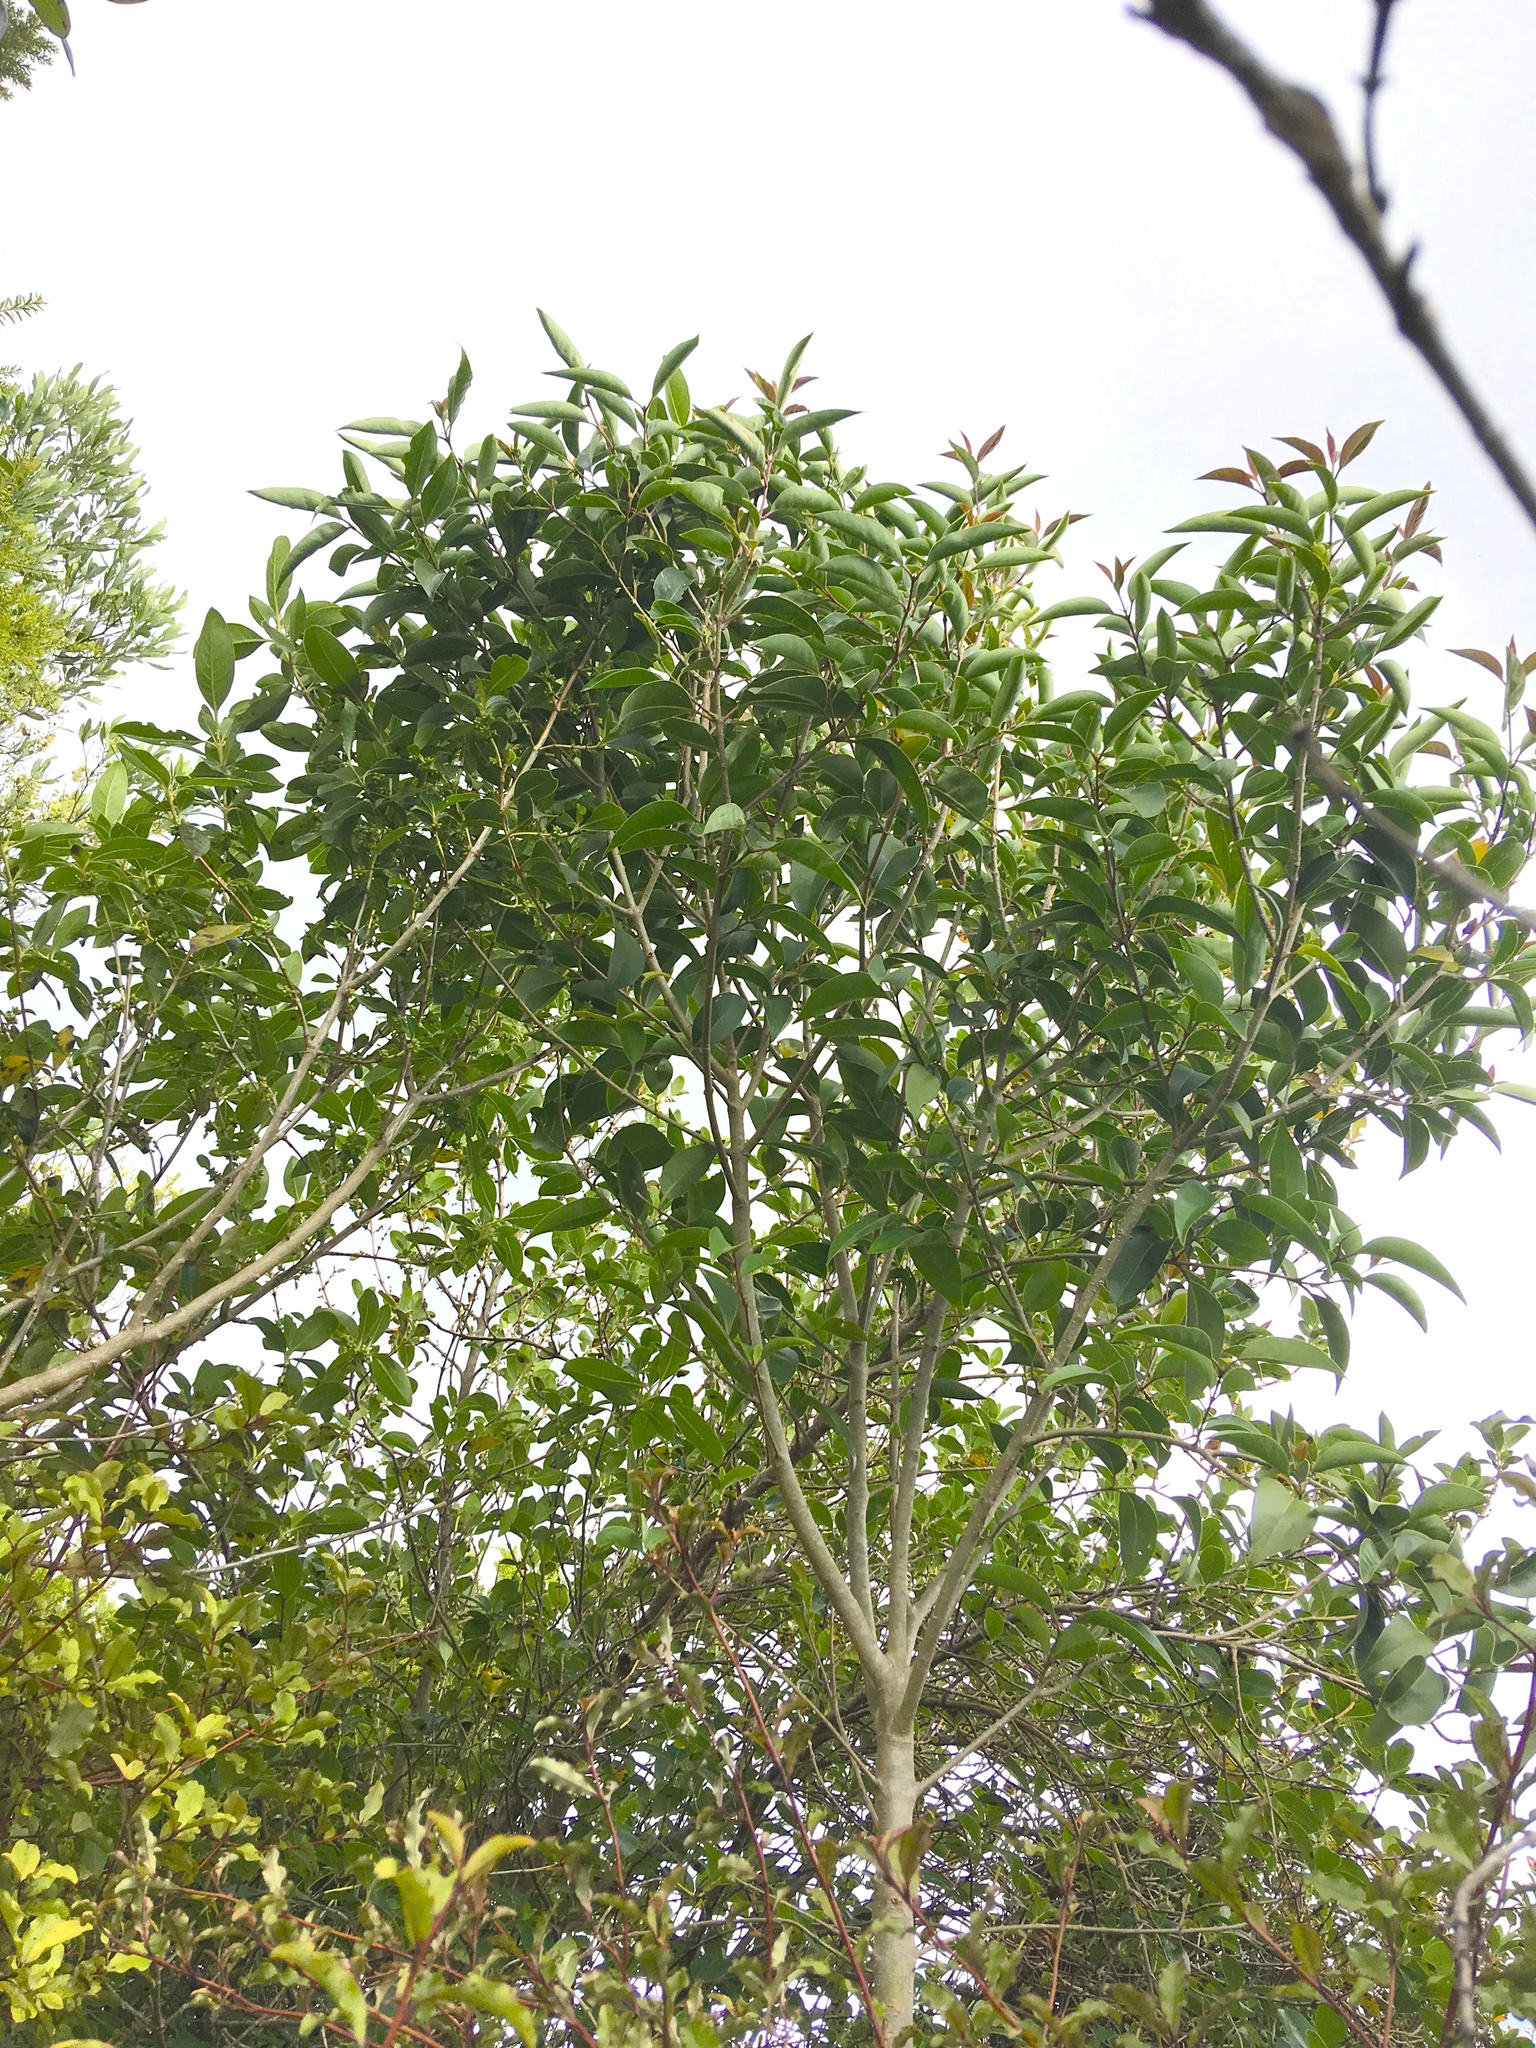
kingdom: Plantae
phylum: Tracheophyta
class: Magnoliopsida
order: Lamiales
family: Oleaceae
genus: Ligustrum
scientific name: Ligustrum lucidum
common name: Glossy privet
